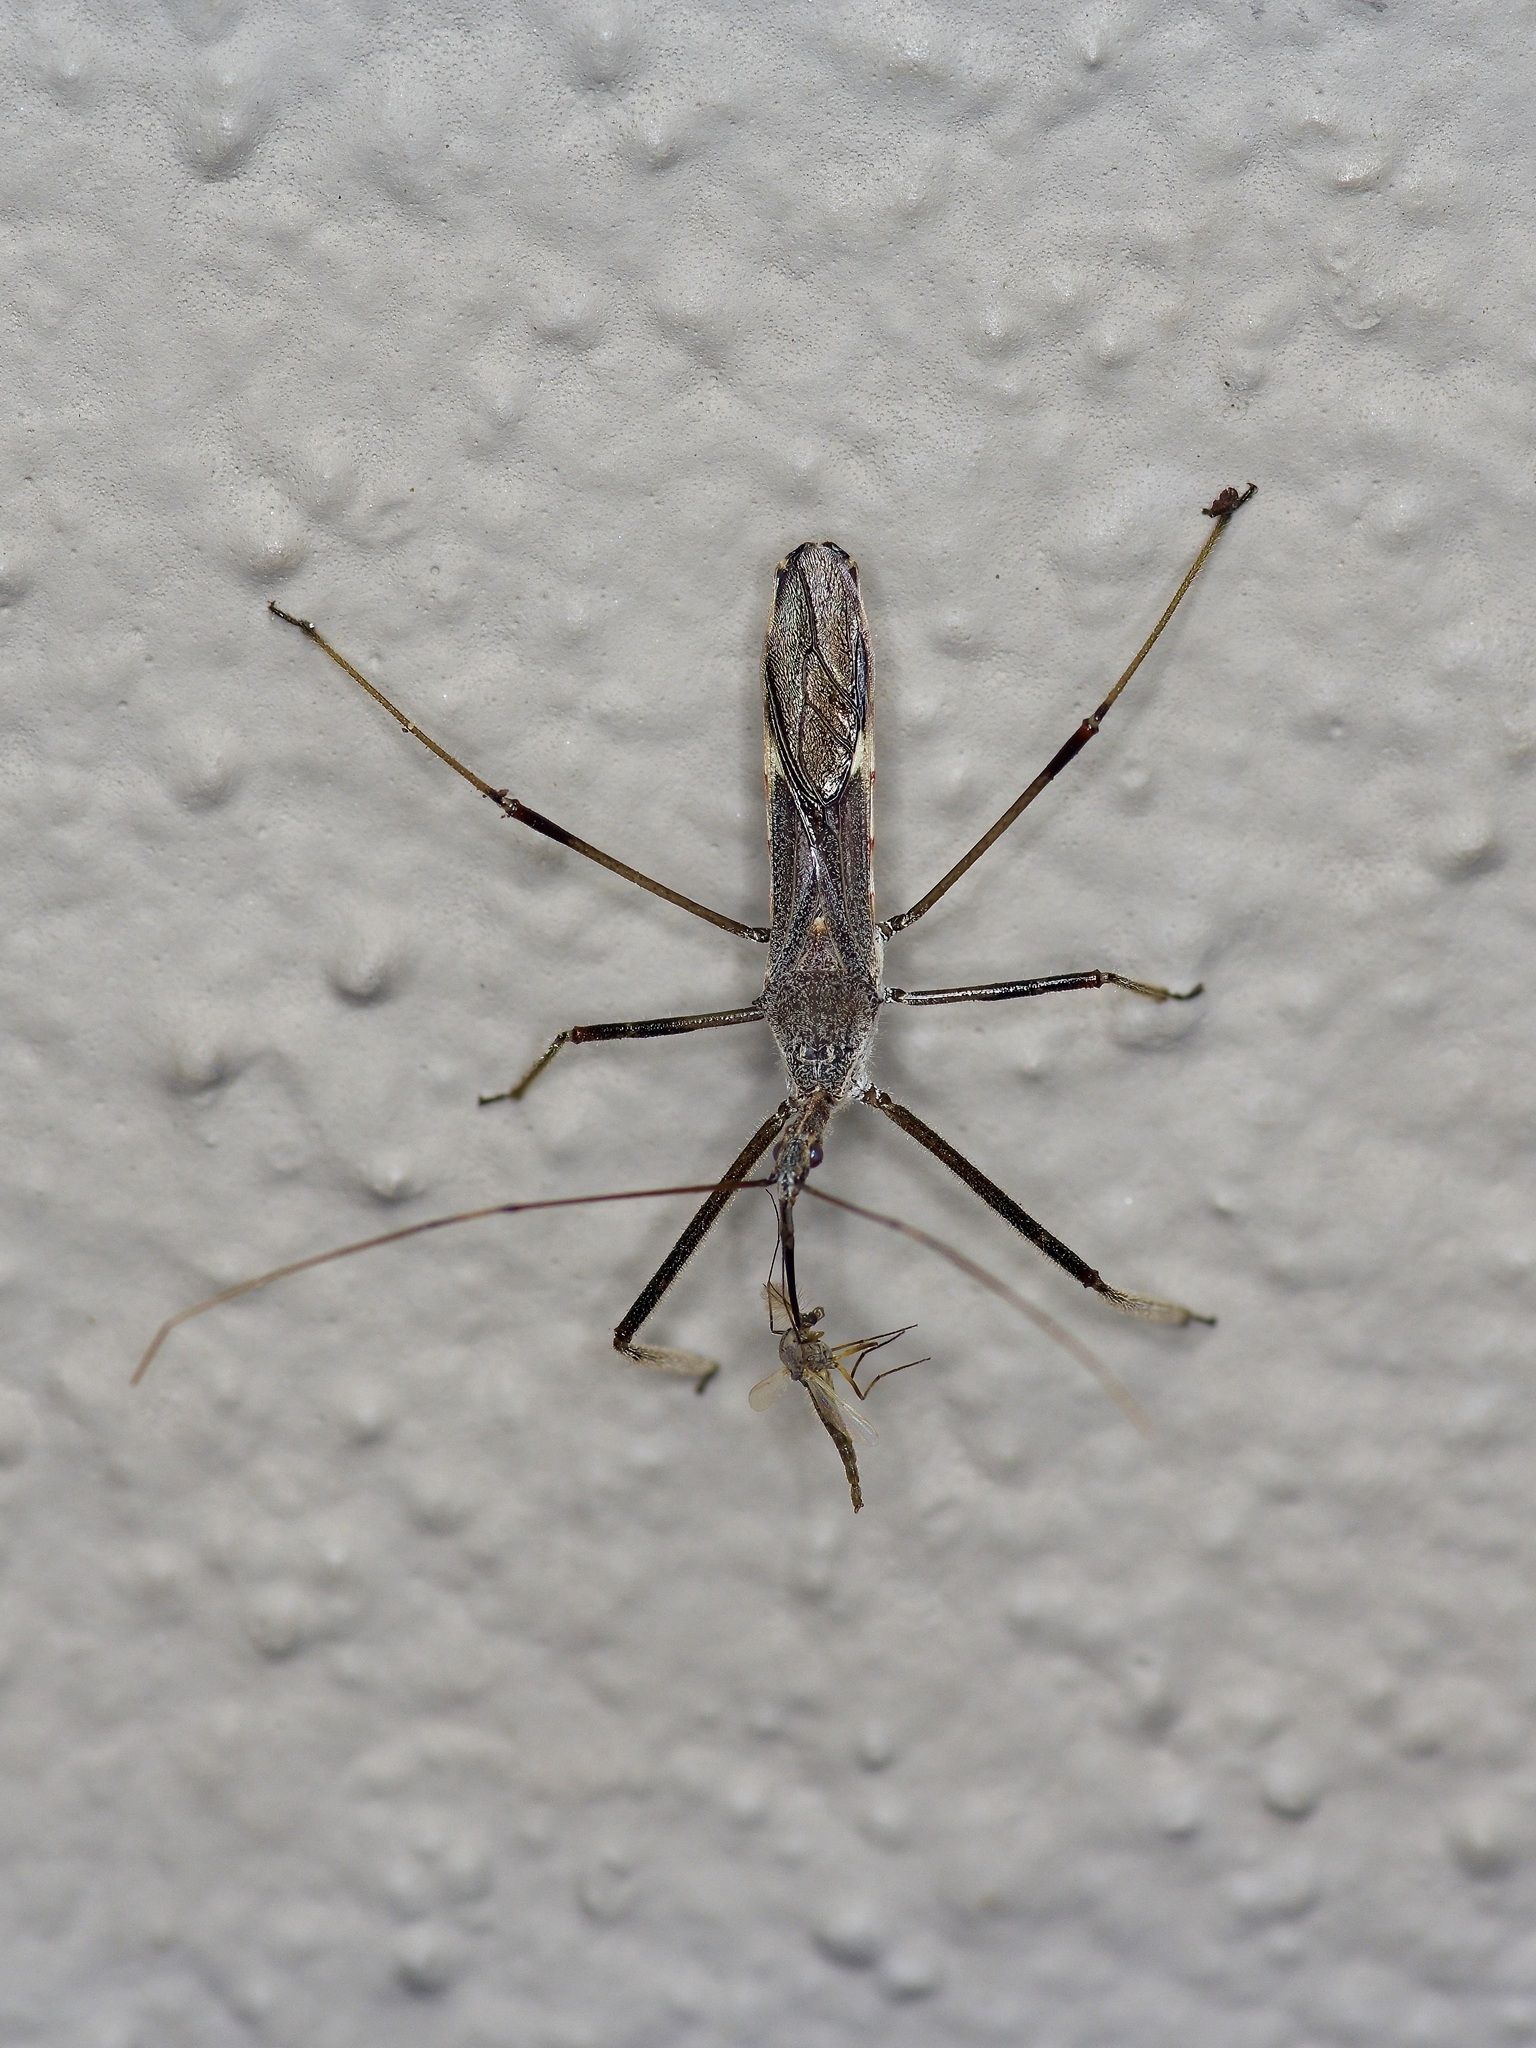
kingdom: Animalia
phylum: Arthropoda
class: Insecta
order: Hemiptera
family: Reduviidae
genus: Zelus
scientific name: Zelus tetracanthus
